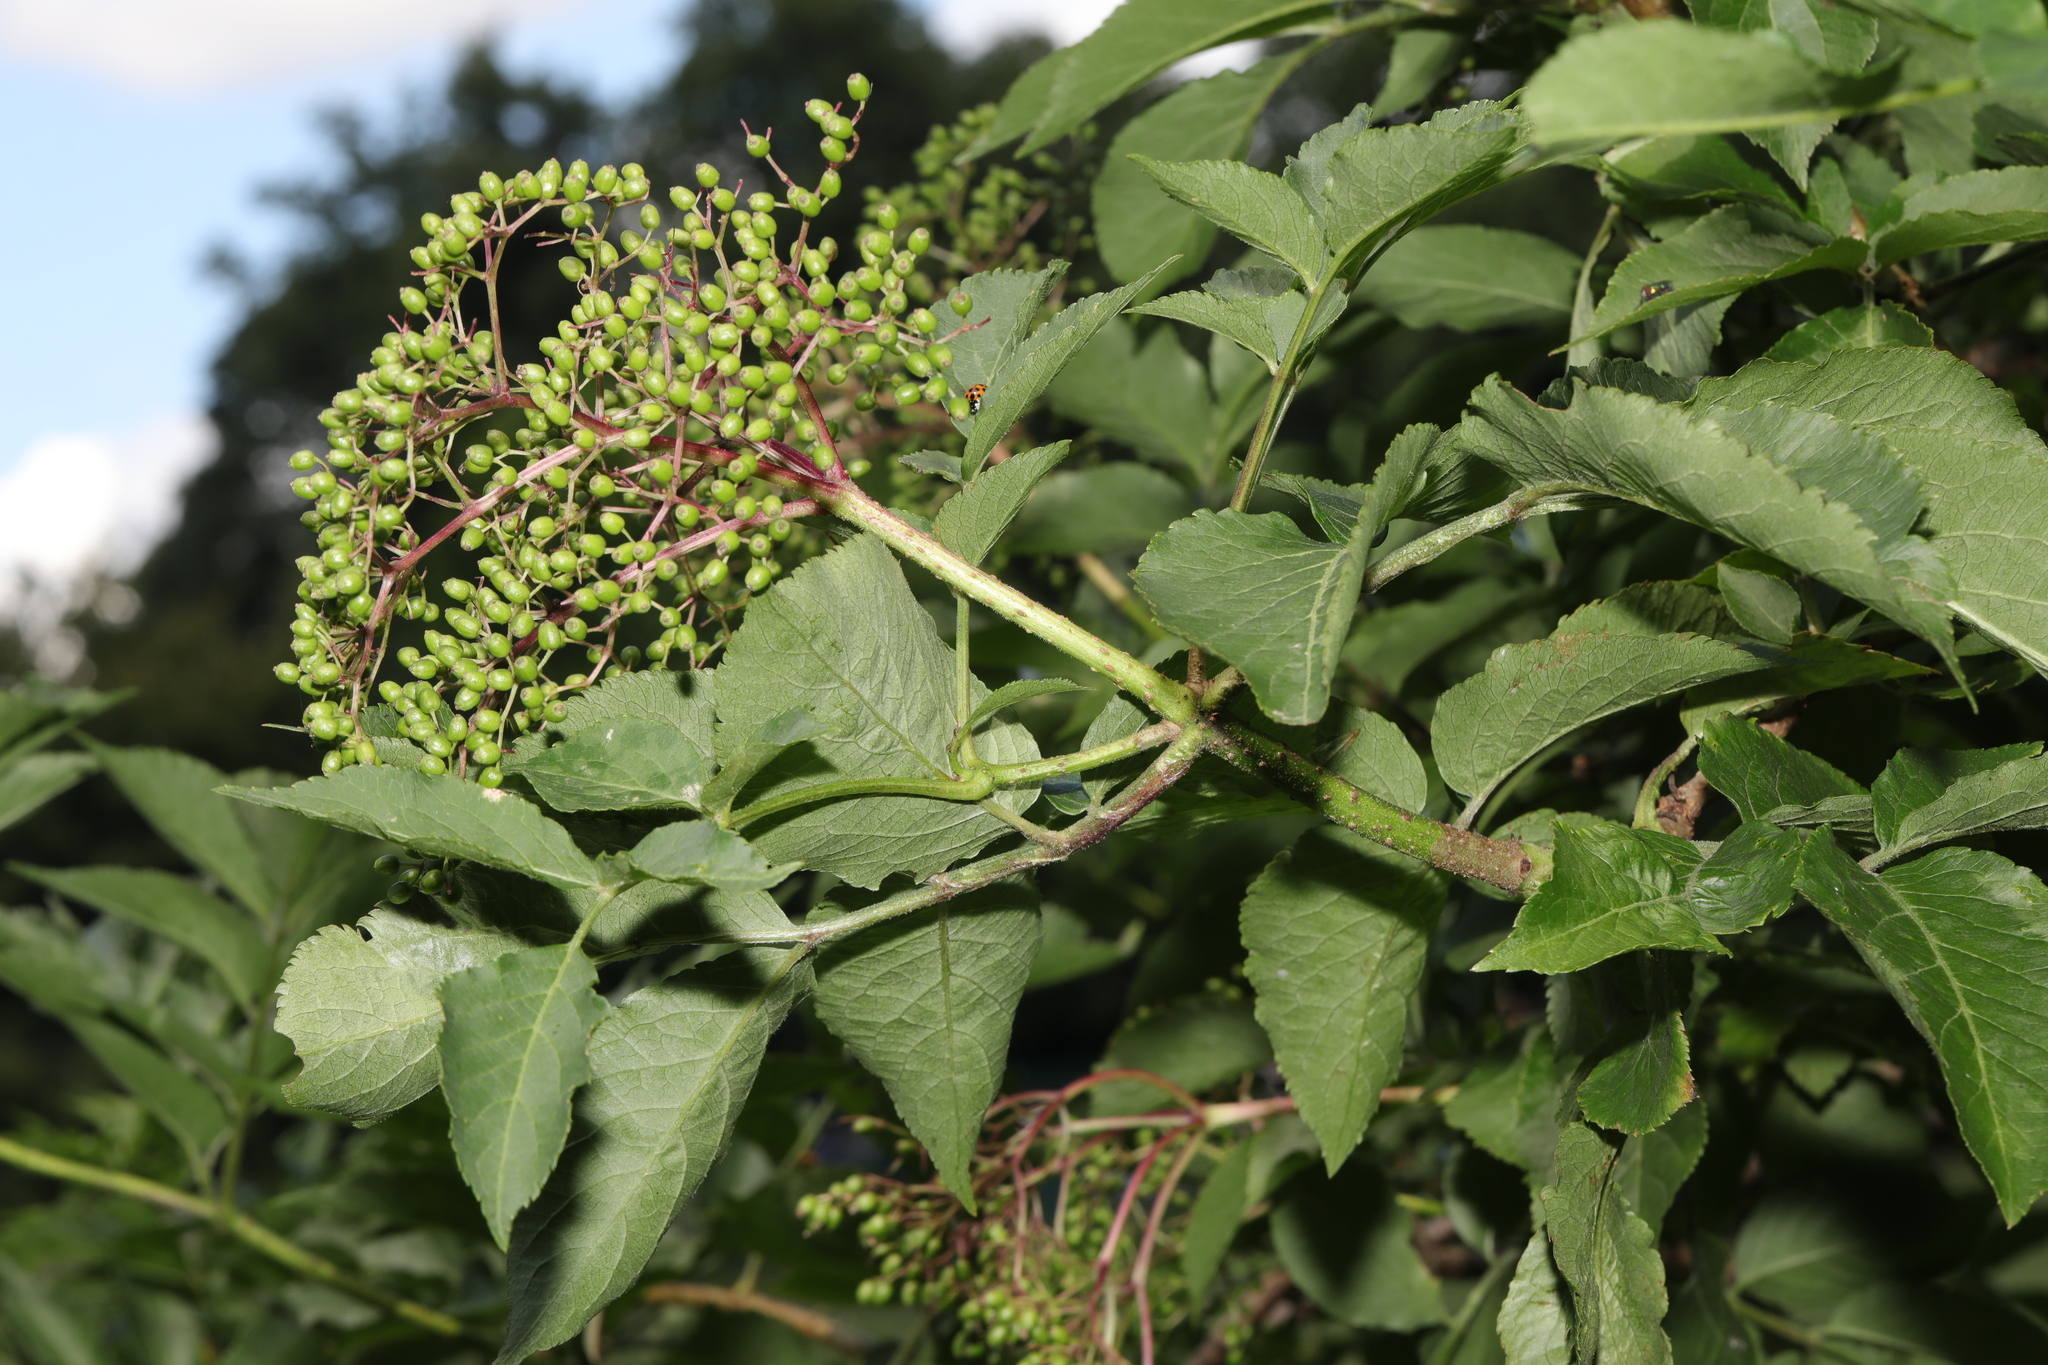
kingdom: Plantae
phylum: Tracheophyta
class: Magnoliopsida
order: Dipsacales
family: Viburnaceae
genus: Sambucus
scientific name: Sambucus nigra
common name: Elder
